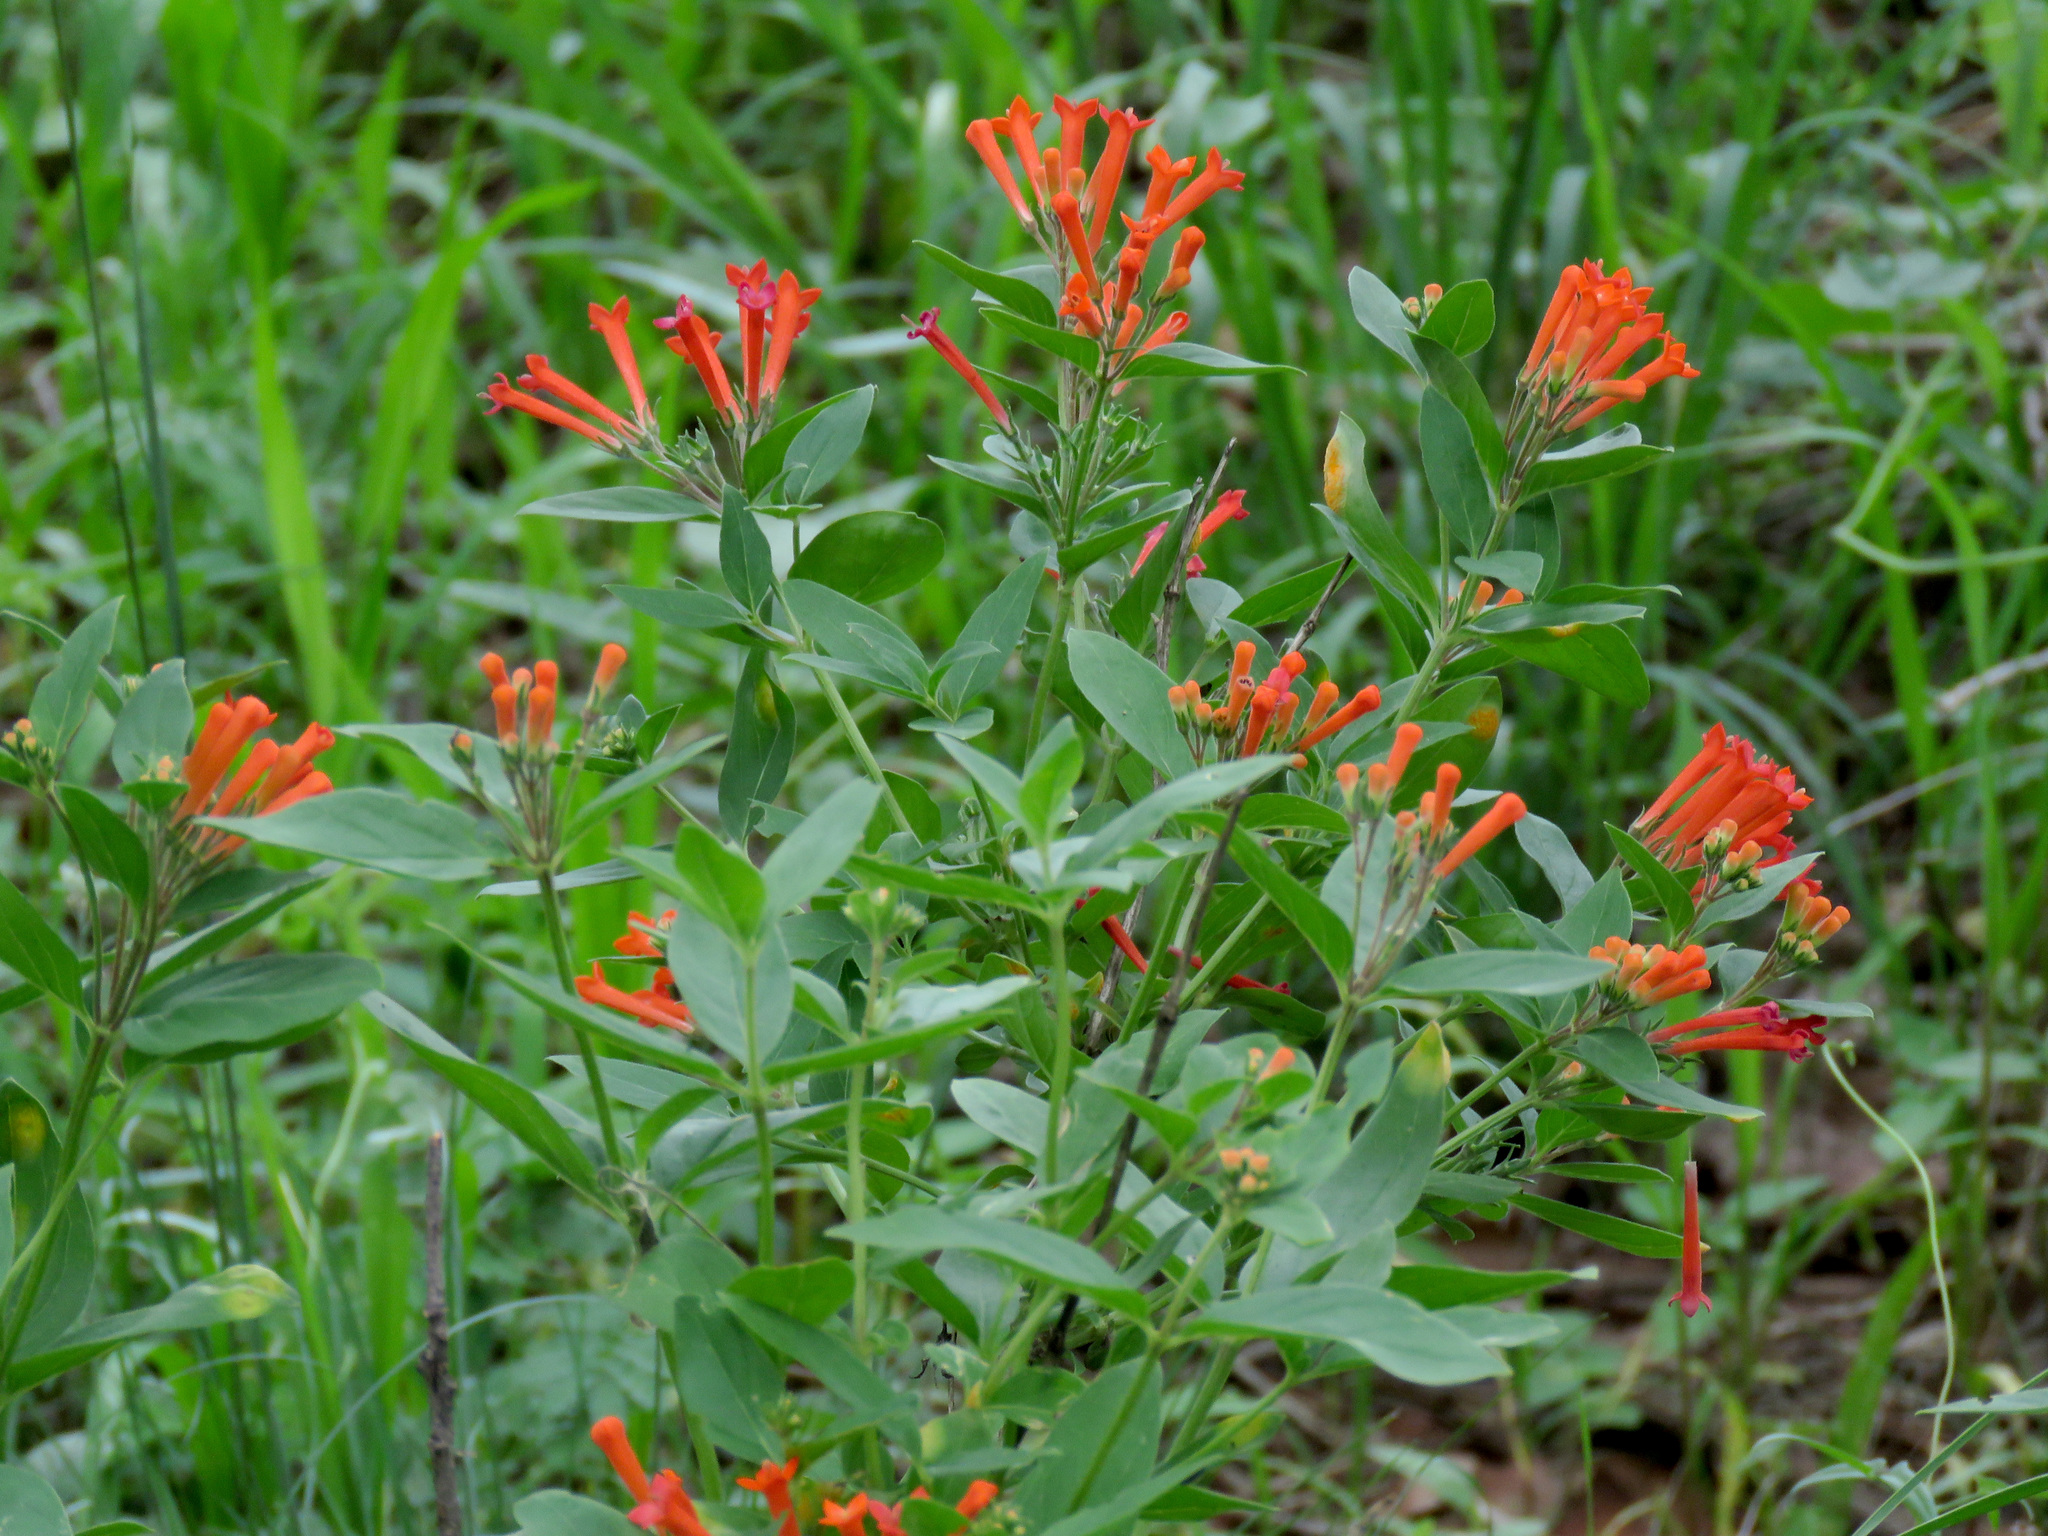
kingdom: Plantae
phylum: Tracheophyta
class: Magnoliopsida
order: Gentianales
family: Rubiaceae
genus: Bouvardia
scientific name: Bouvardia ternifolia
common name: Scarlet bouvardia
